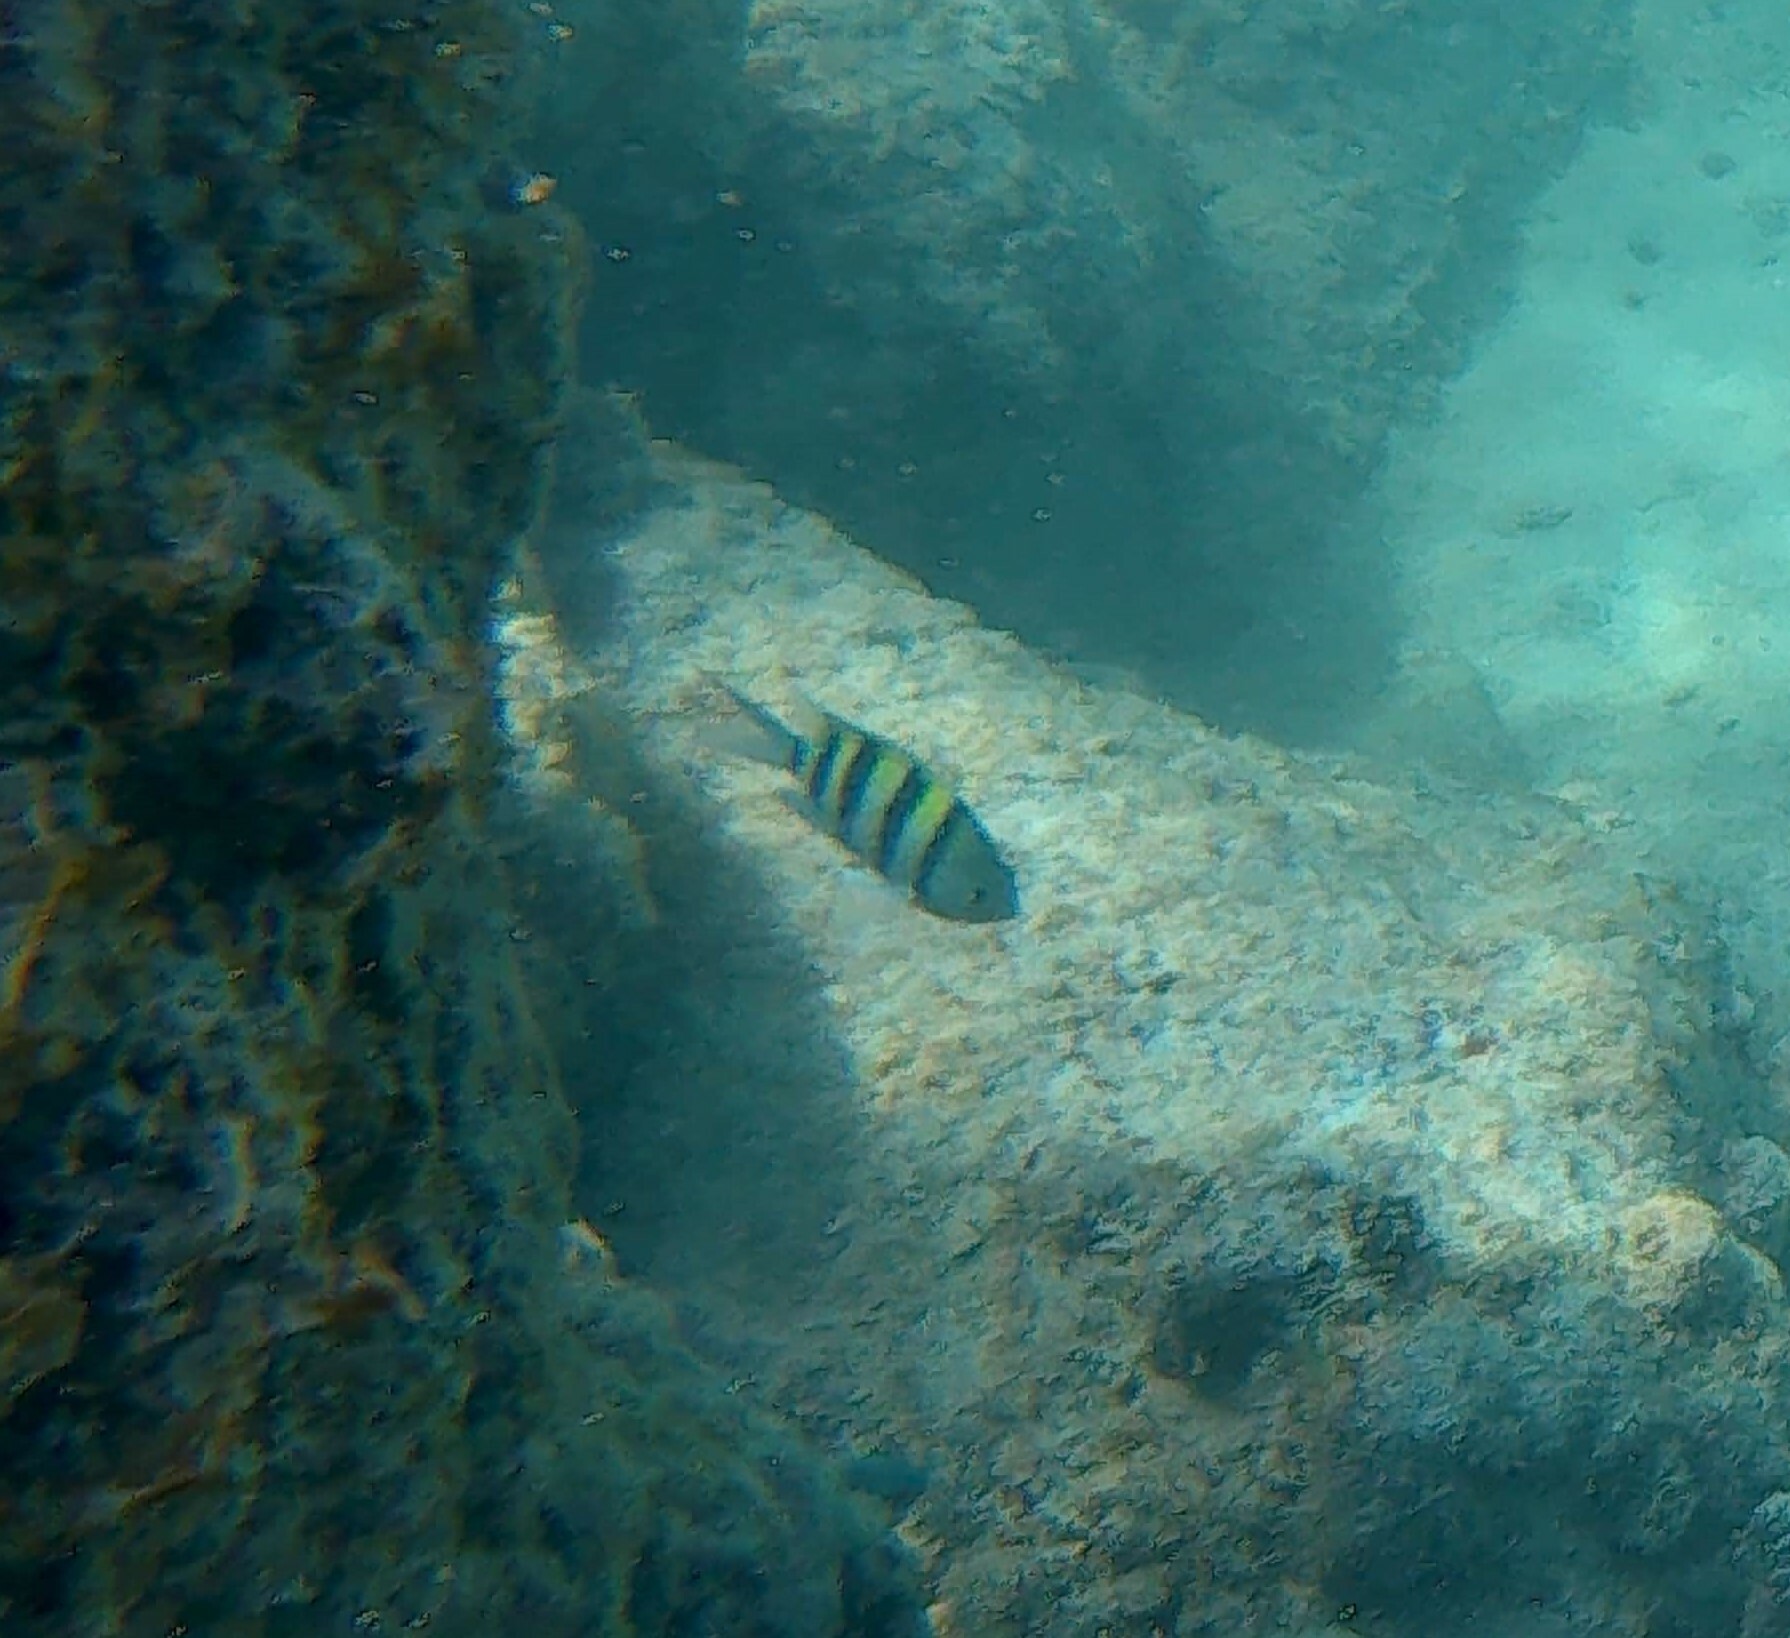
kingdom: Animalia
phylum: Chordata
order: Perciformes
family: Pomacentridae
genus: Abudefduf
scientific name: Abudefduf vaigiensis
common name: Indo-pacific sergeant
